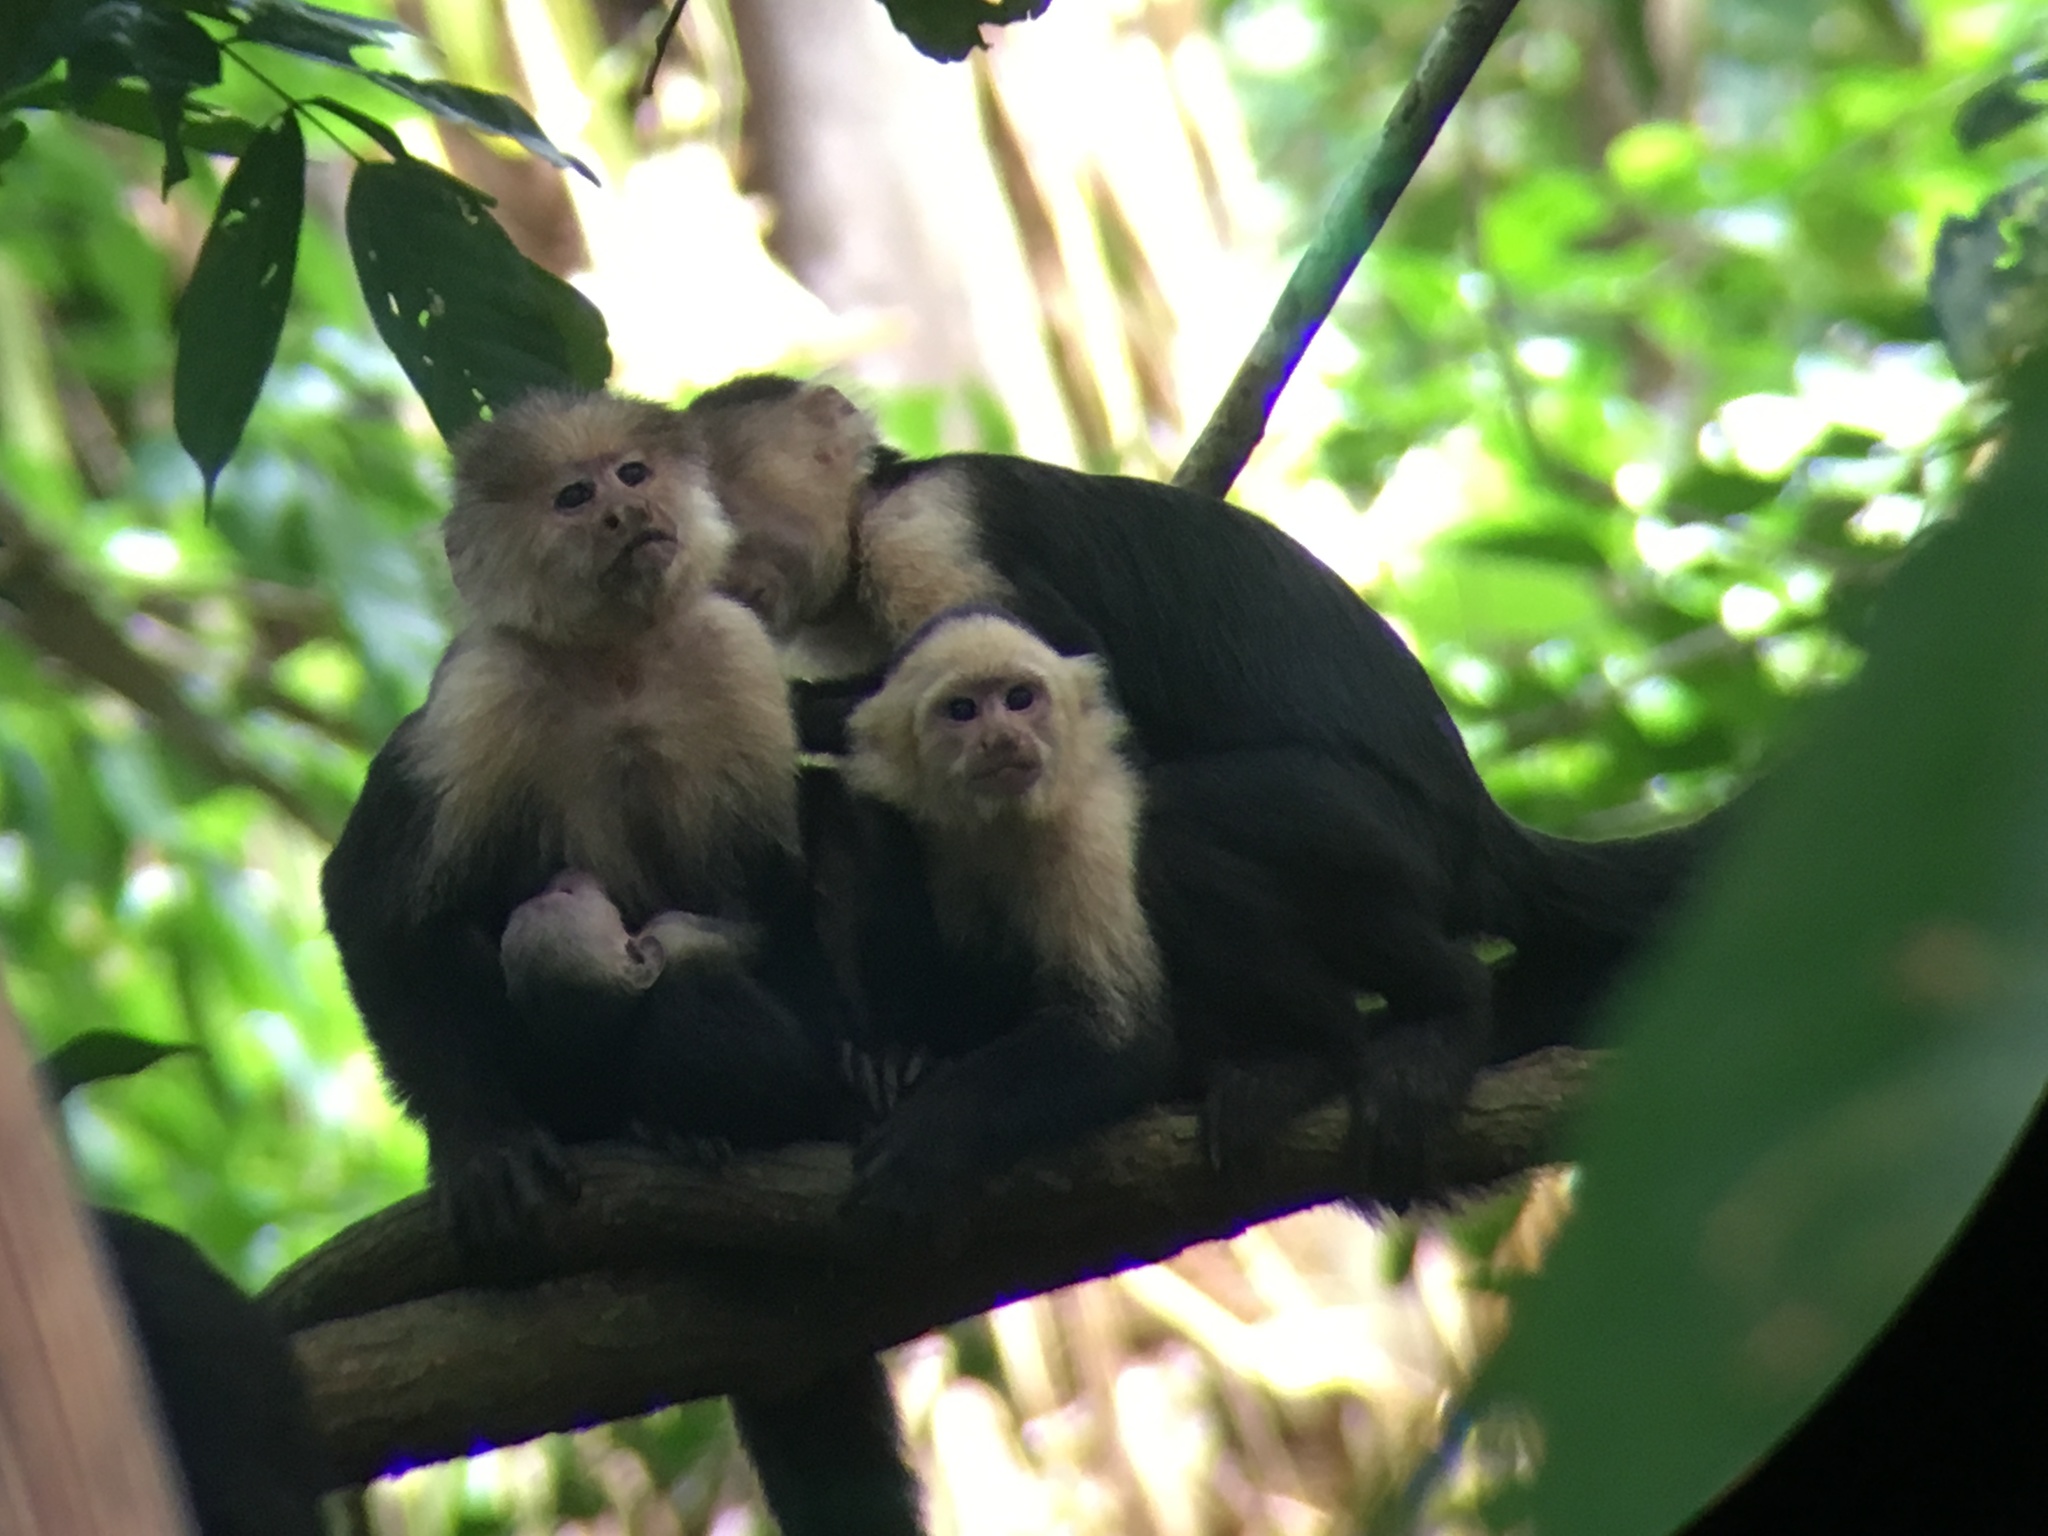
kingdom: Animalia
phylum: Chordata
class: Mammalia
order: Primates
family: Cebidae
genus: Cebus
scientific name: Cebus imitator
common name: Panamanian white-faced capuchin
